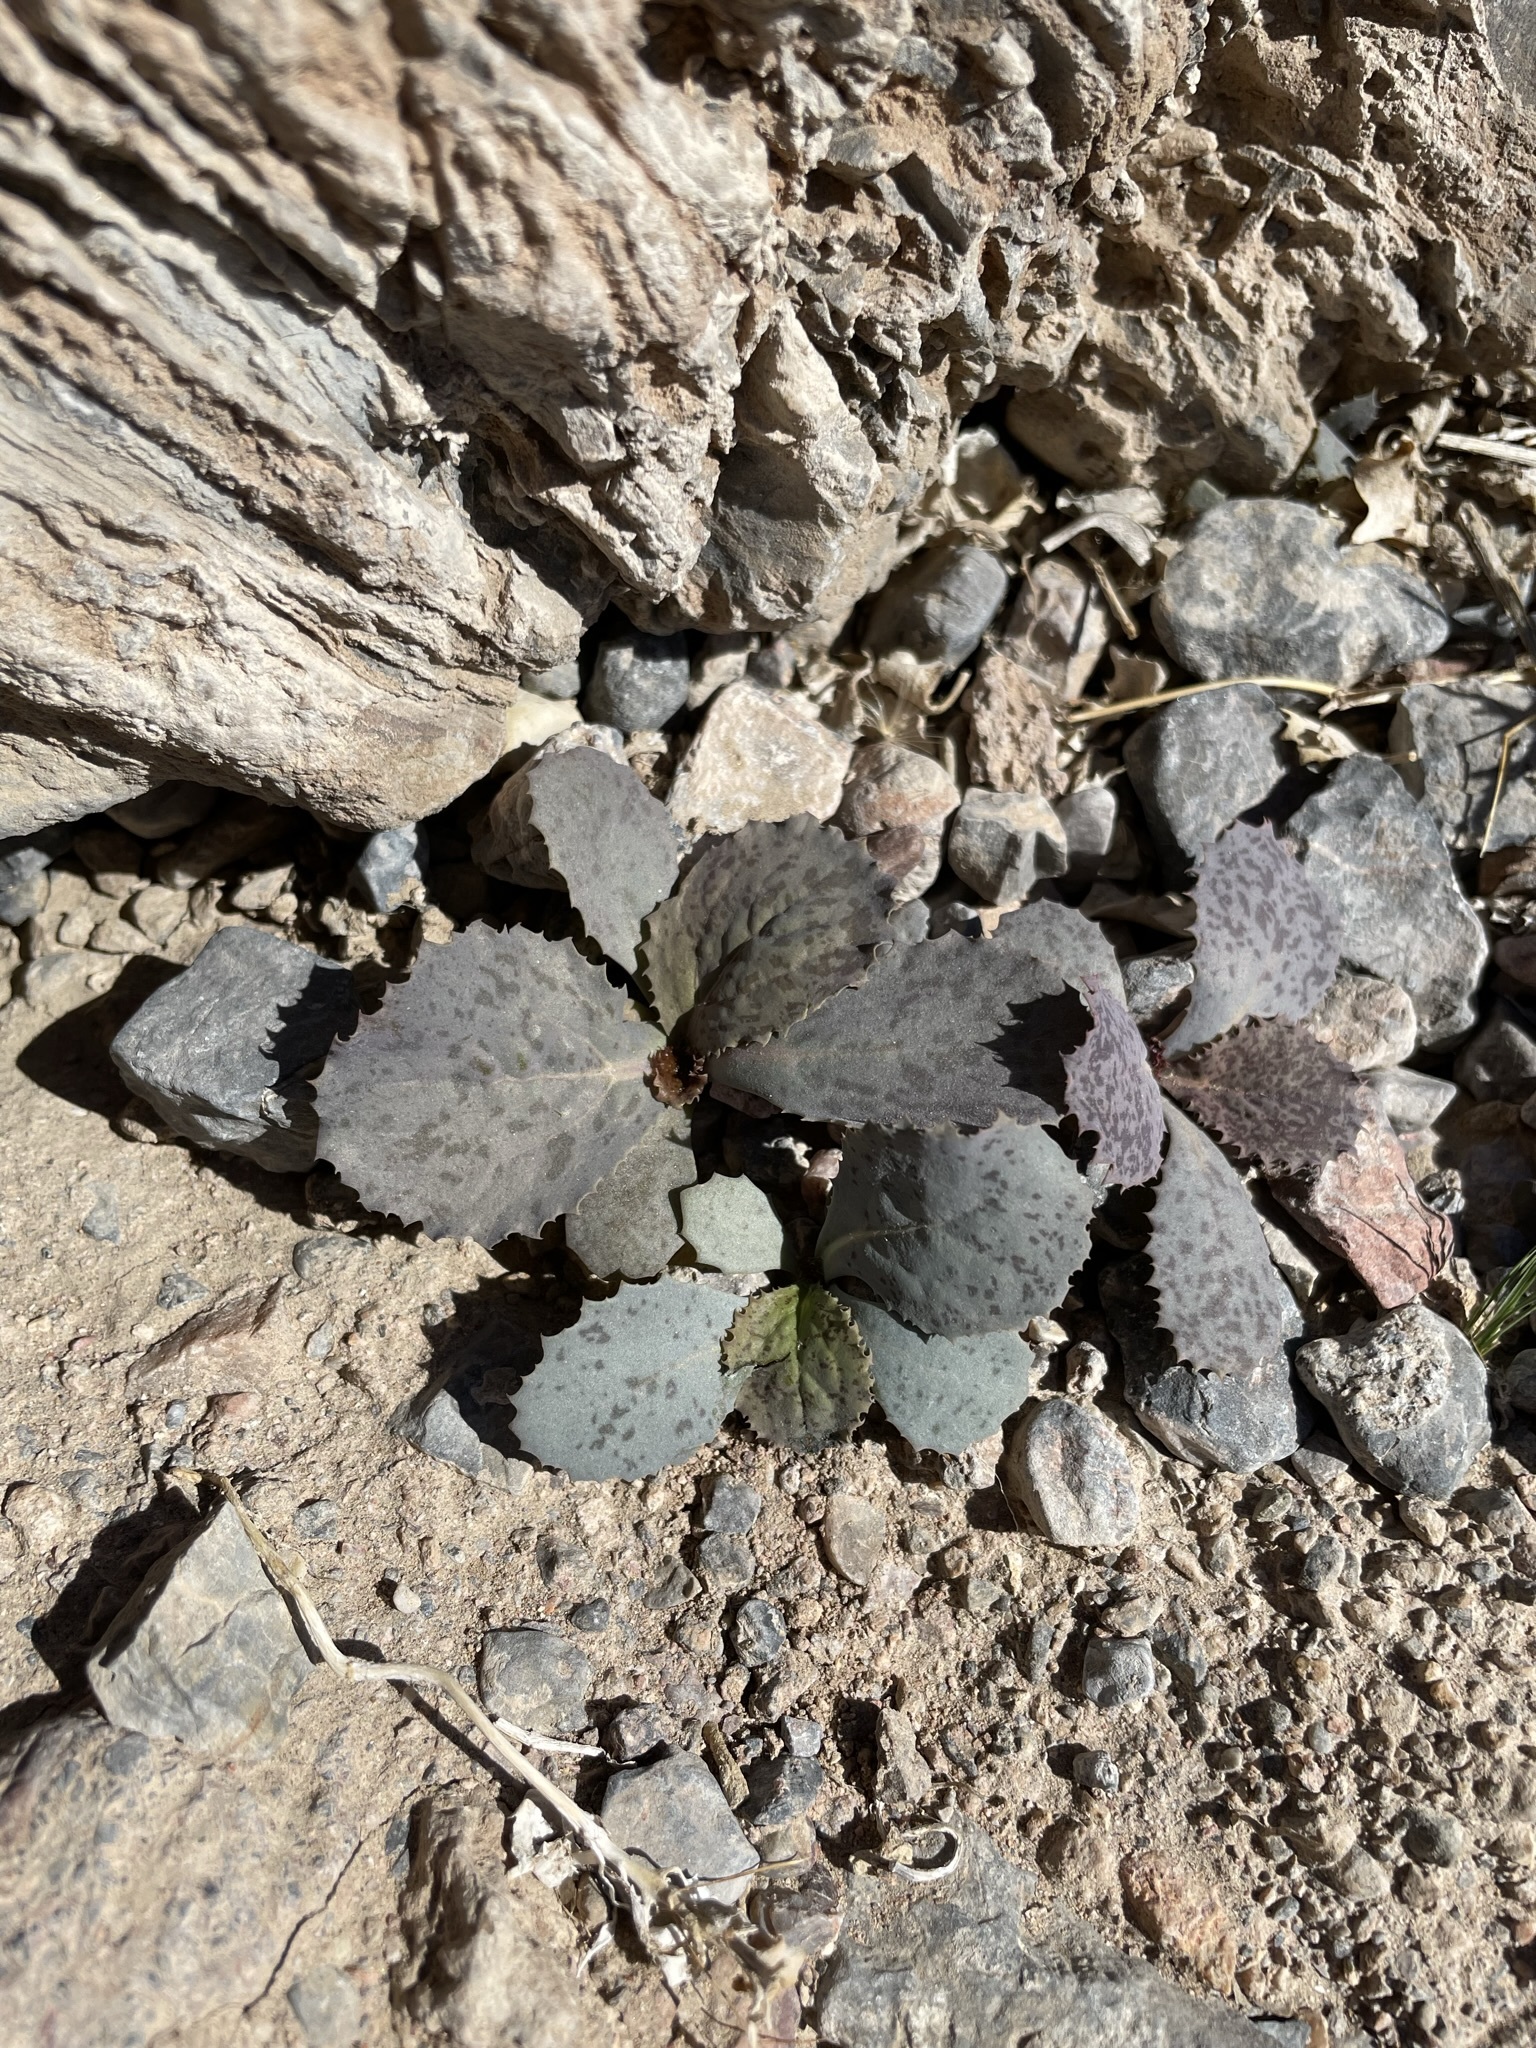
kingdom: Plantae
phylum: Tracheophyta
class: Magnoliopsida
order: Asterales
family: Asteraceae
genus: Atrichoseris
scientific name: Atrichoseris platyphylla
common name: Tobaccoweed
